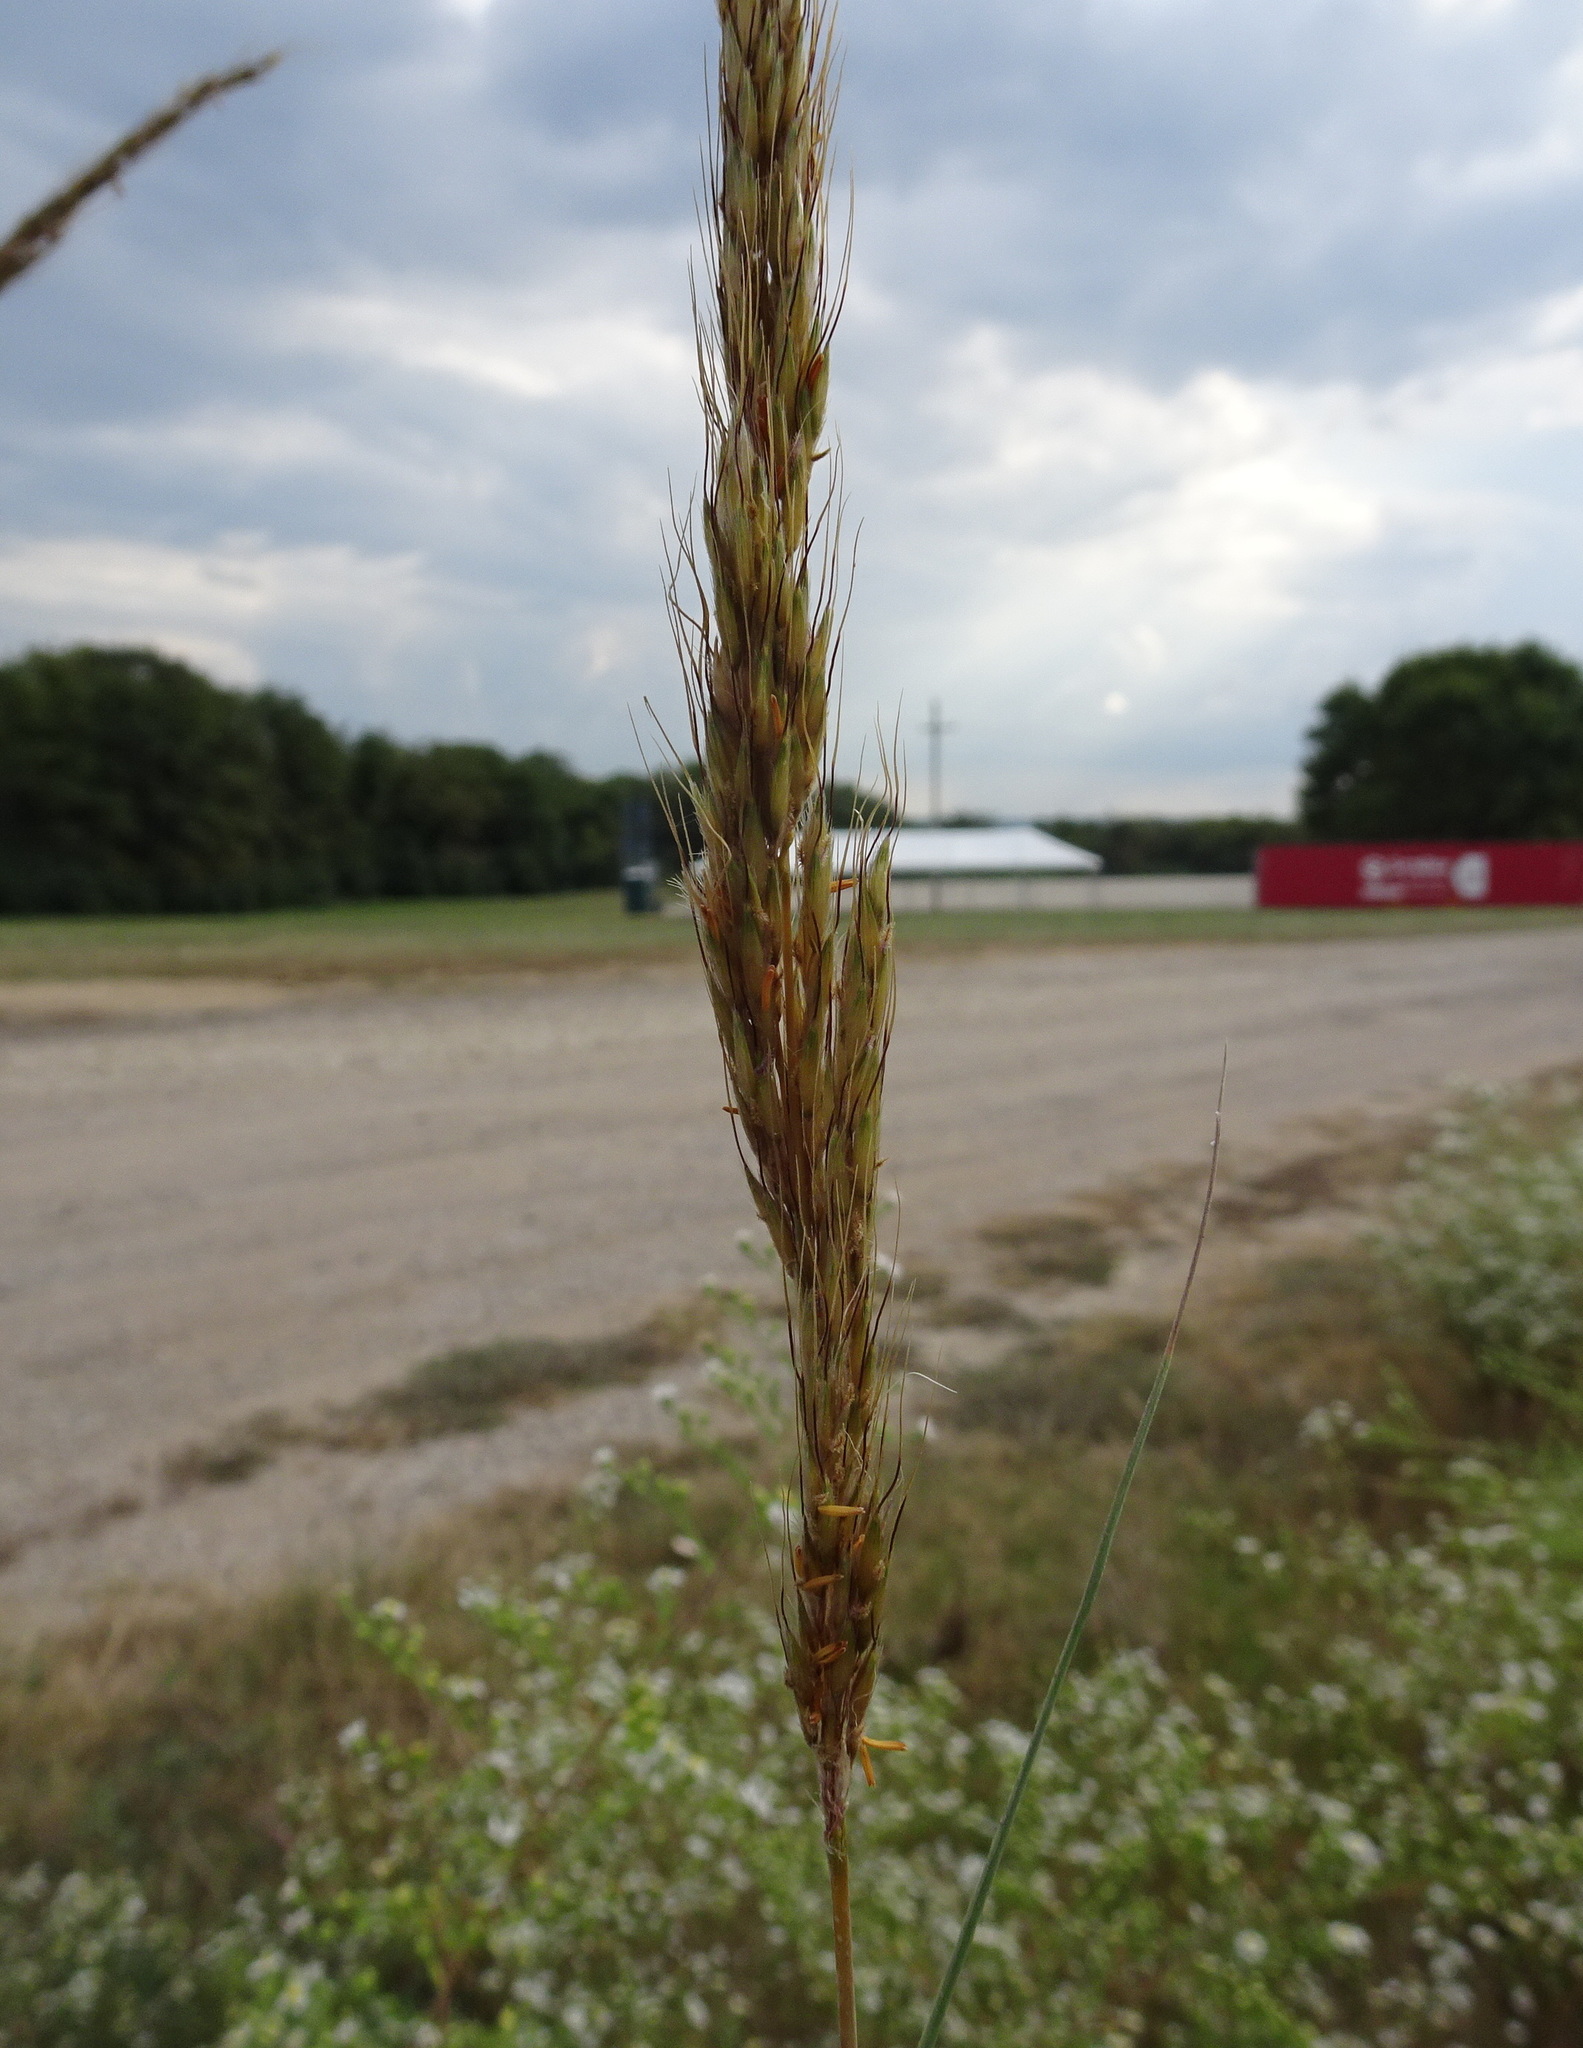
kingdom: Plantae
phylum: Tracheophyta
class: Liliopsida
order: Poales
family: Poaceae
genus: Sorghastrum
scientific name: Sorghastrum nutans
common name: Indian grass
